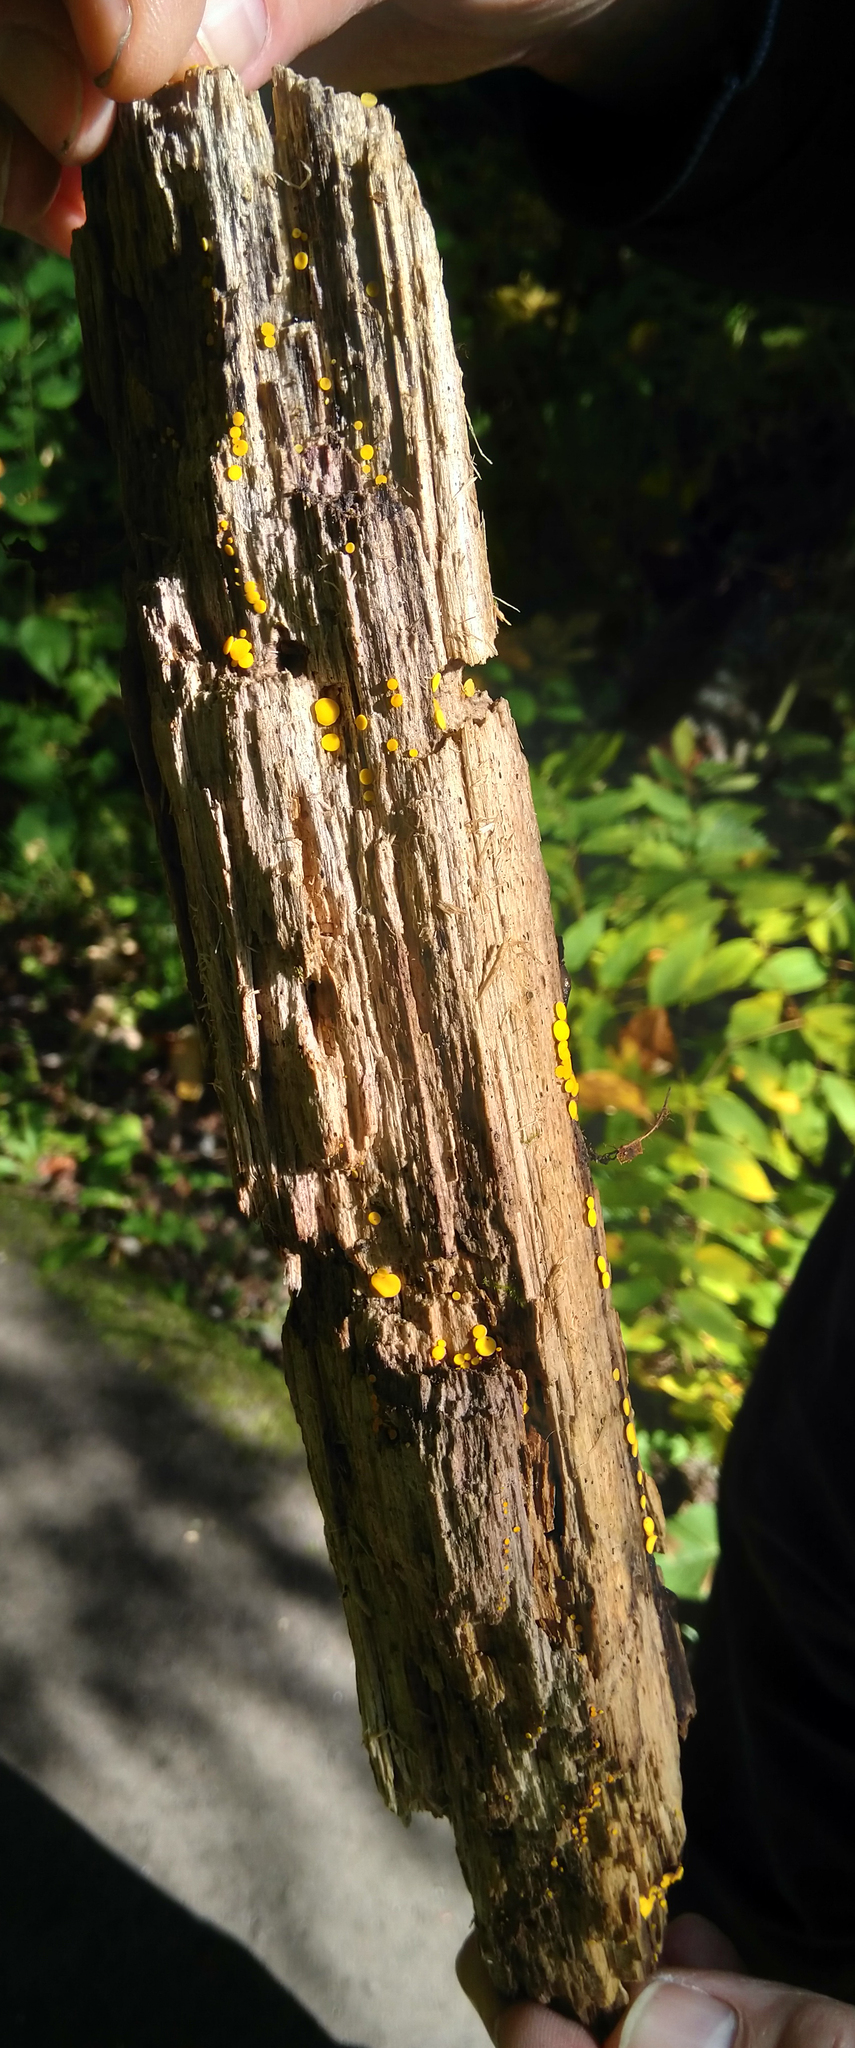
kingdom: Fungi
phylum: Ascomycota
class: Leotiomycetes
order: Helotiales
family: Pezizellaceae
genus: Calycina
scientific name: Calycina citrina
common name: Yellow fairy cups
